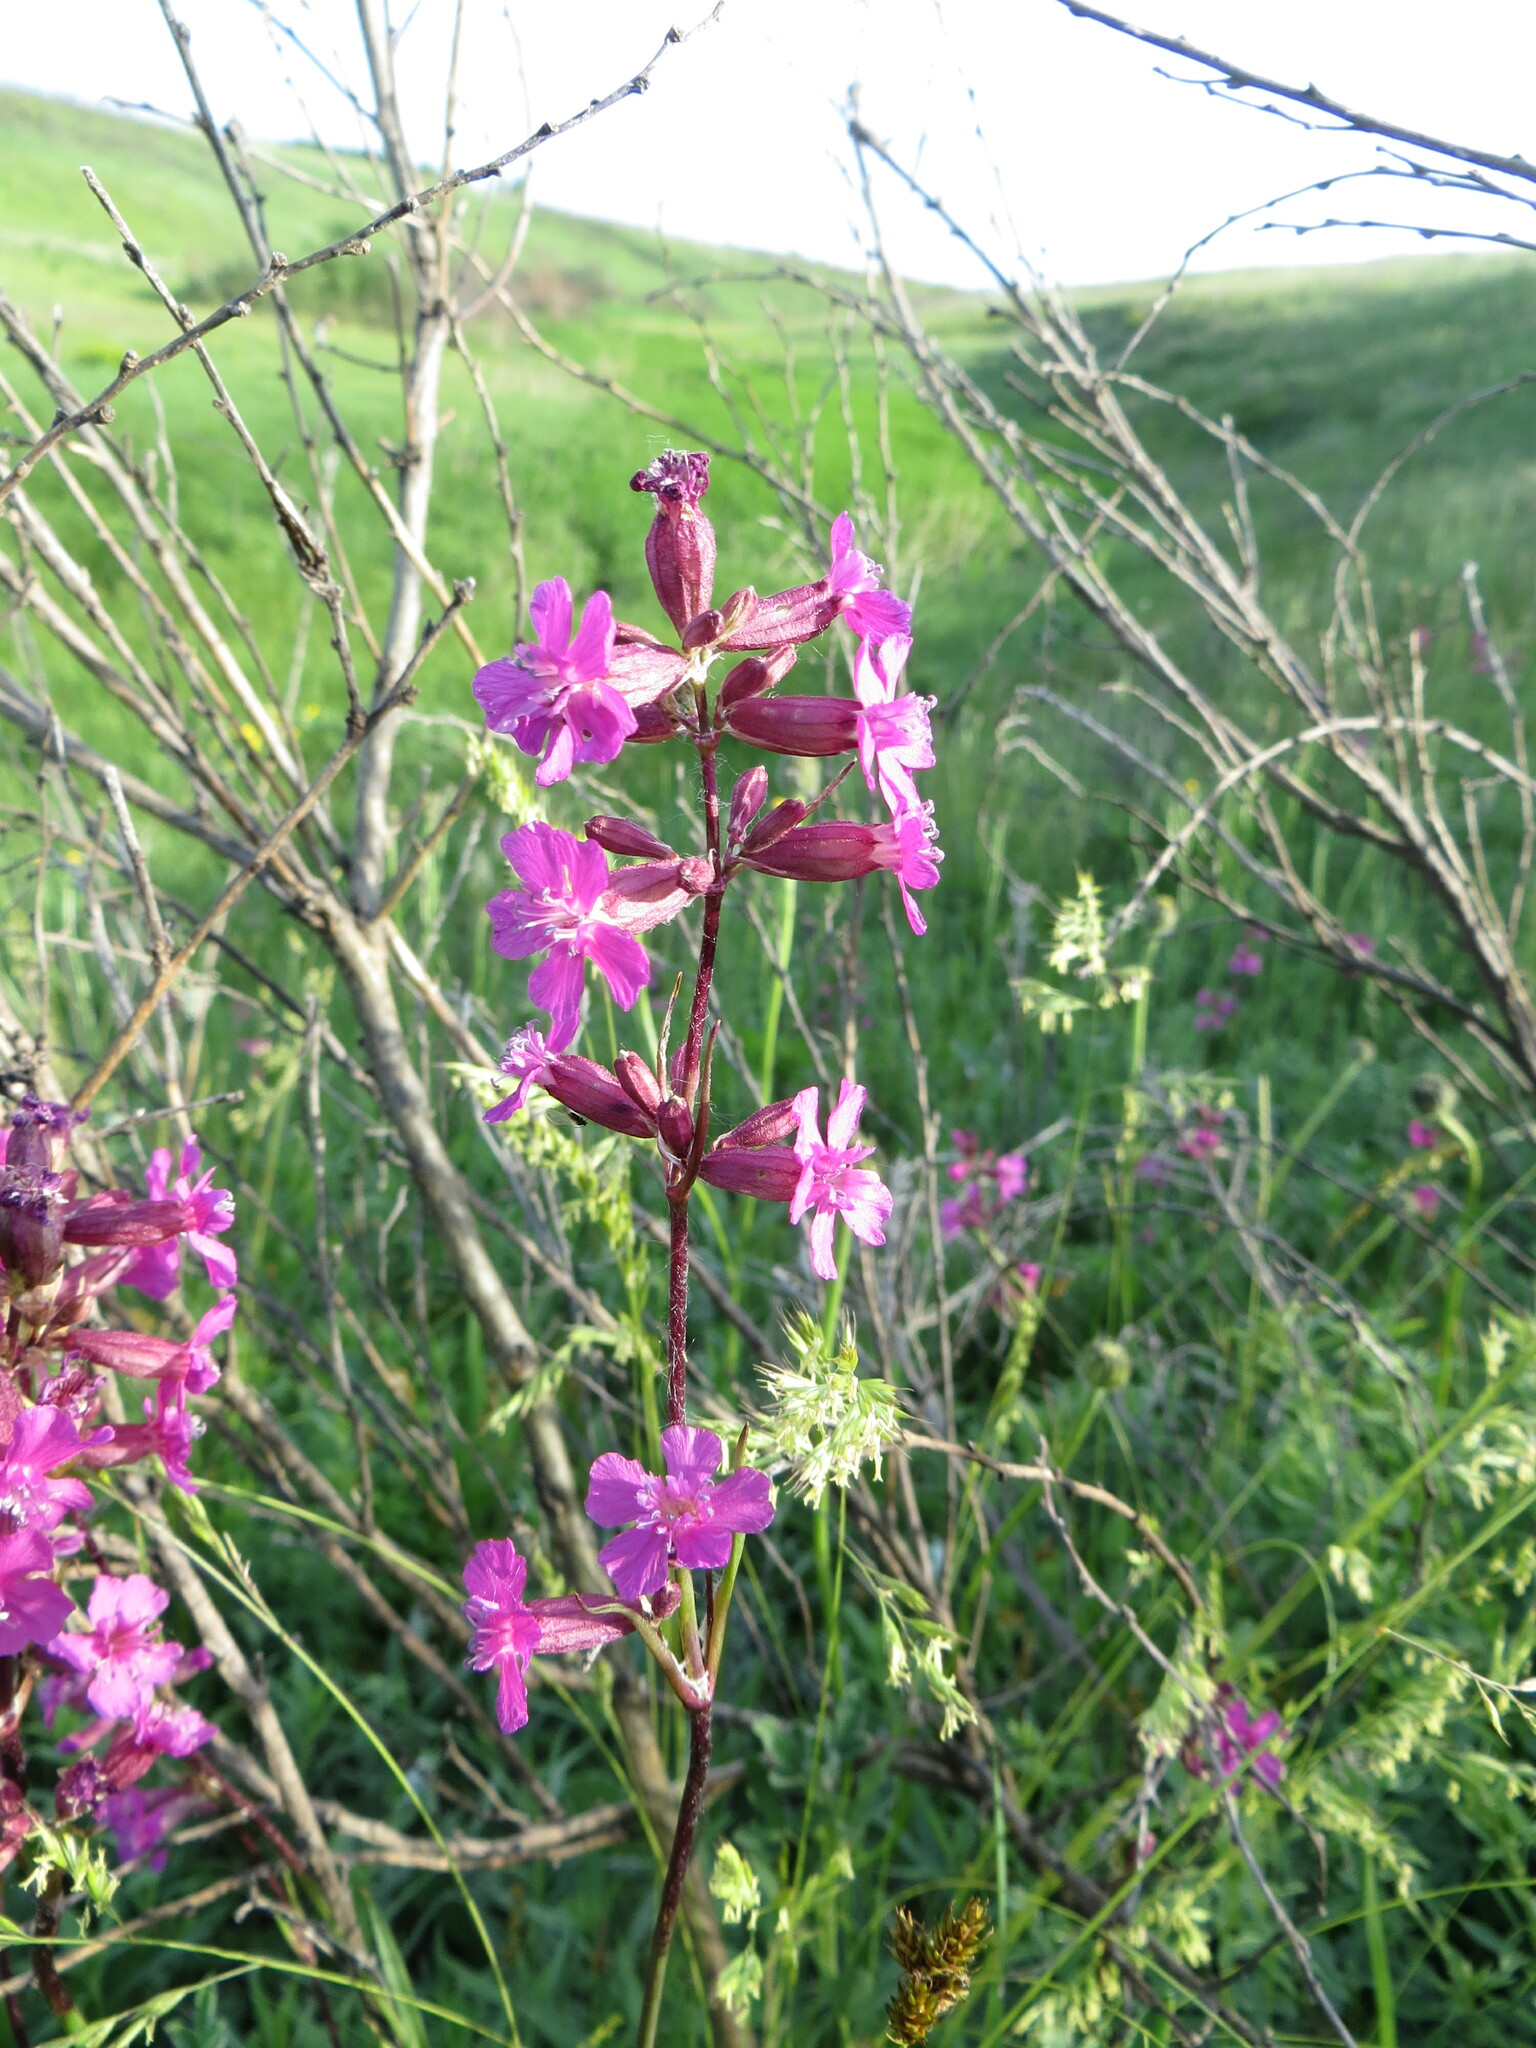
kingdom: Plantae
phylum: Tracheophyta
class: Magnoliopsida
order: Caryophyllales
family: Caryophyllaceae
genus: Viscaria
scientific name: Viscaria vulgaris
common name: Clammy campion
